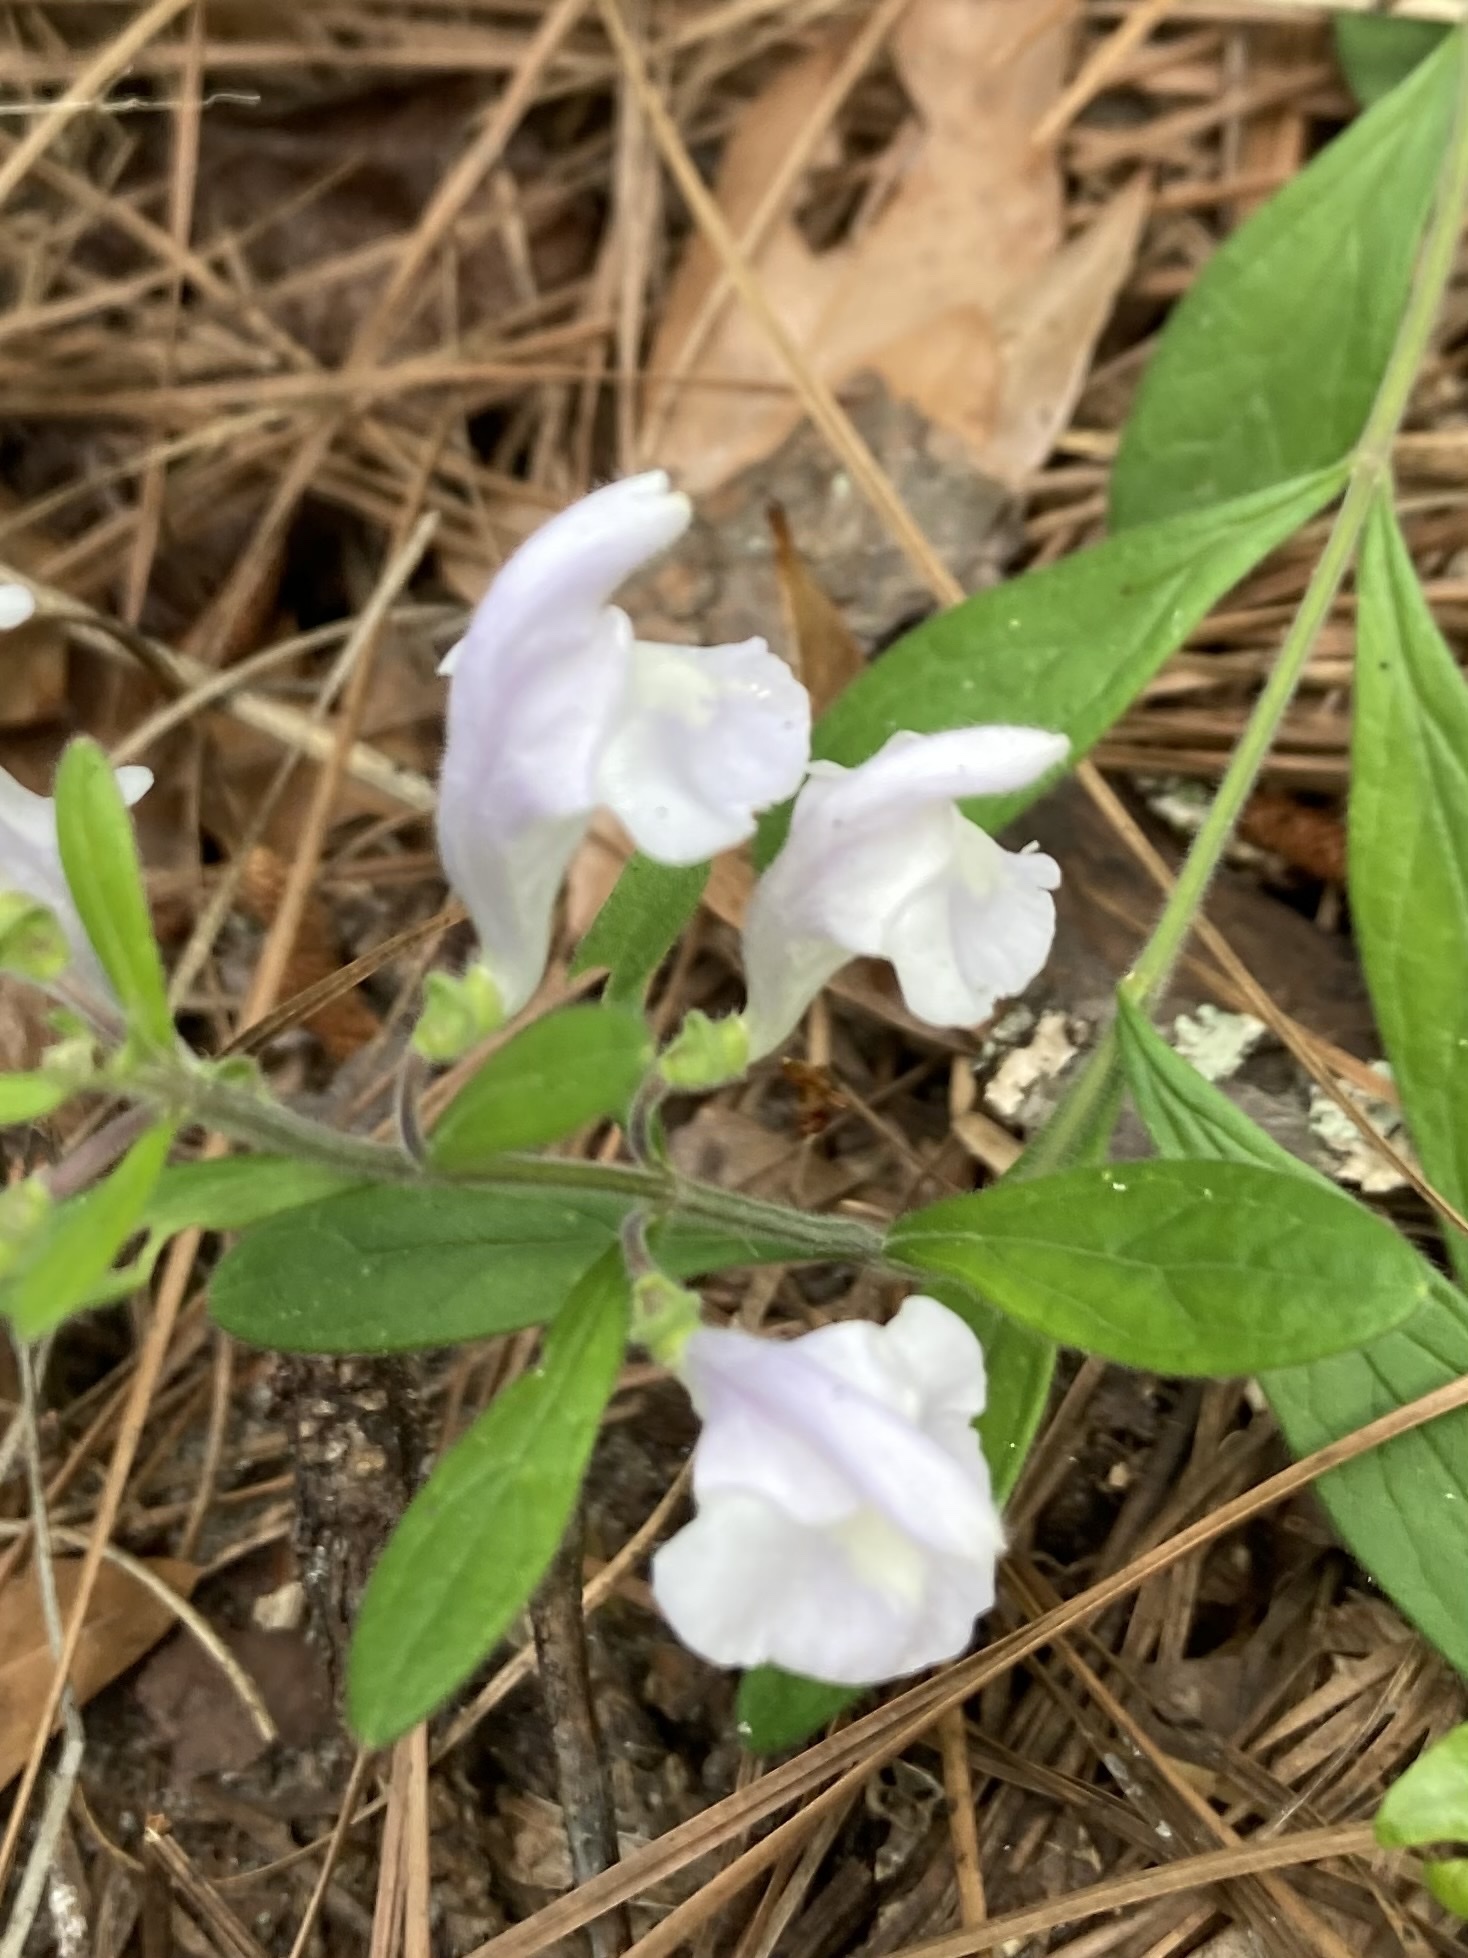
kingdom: Plantae
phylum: Tracheophyta
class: Magnoliopsida
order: Lamiales
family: Lamiaceae
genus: Scutellaria
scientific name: Scutellaria multiglandulosa
